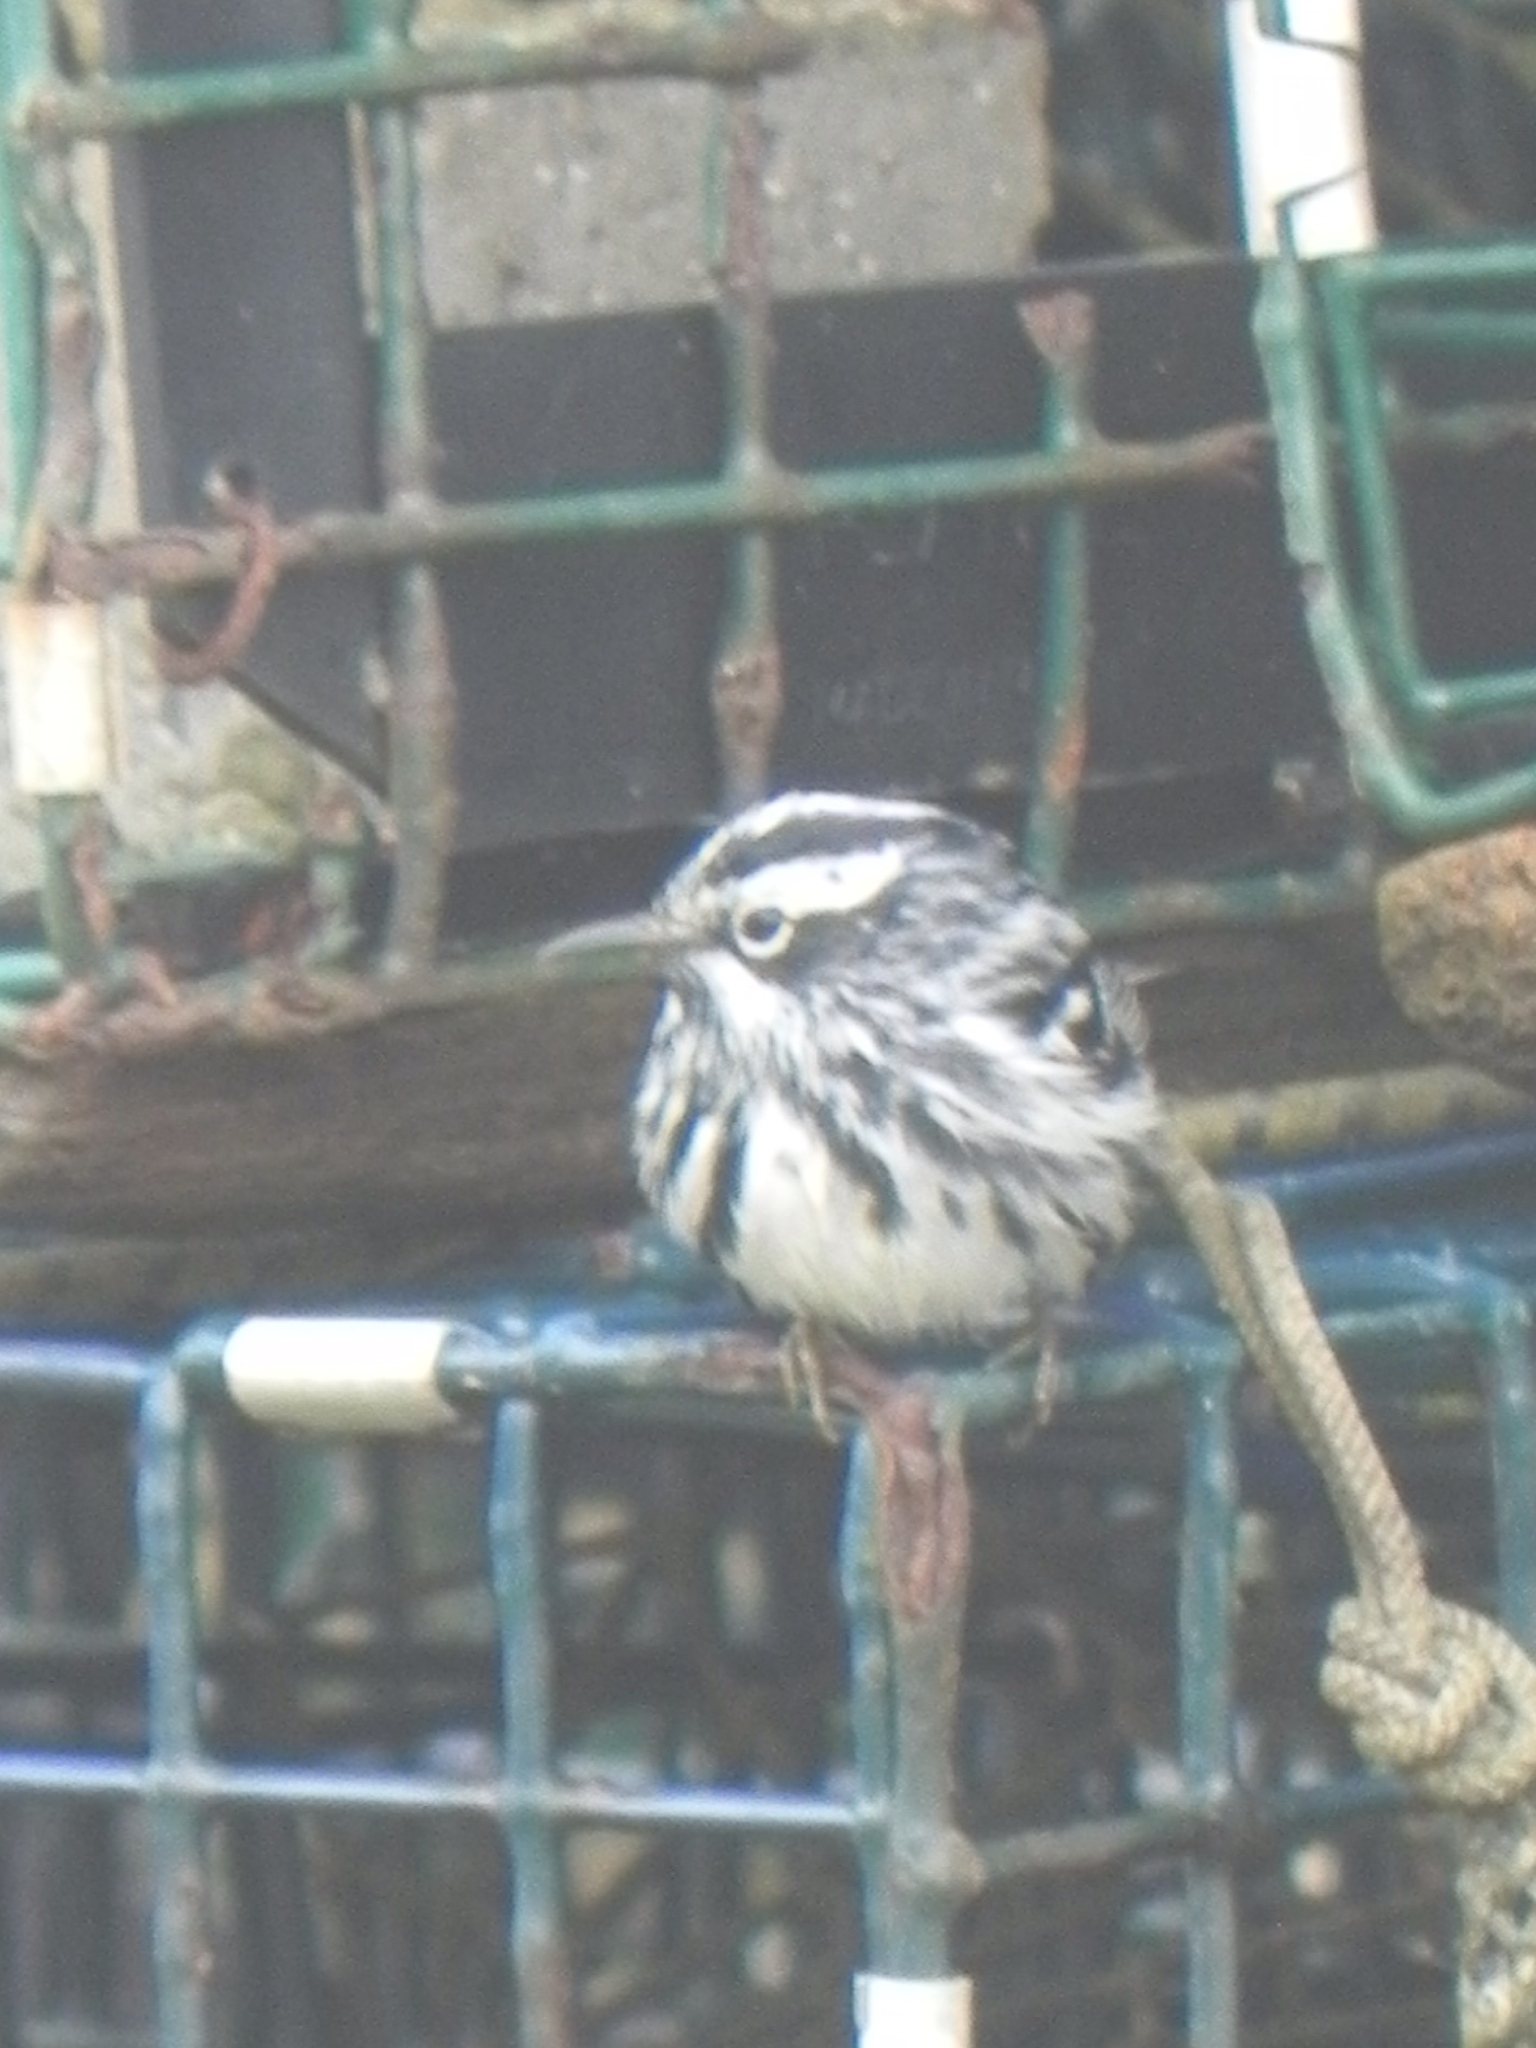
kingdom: Animalia
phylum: Chordata
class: Aves
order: Passeriformes
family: Parulidae
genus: Mniotilta
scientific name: Mniotilta varia
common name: Black-and-white warbler
